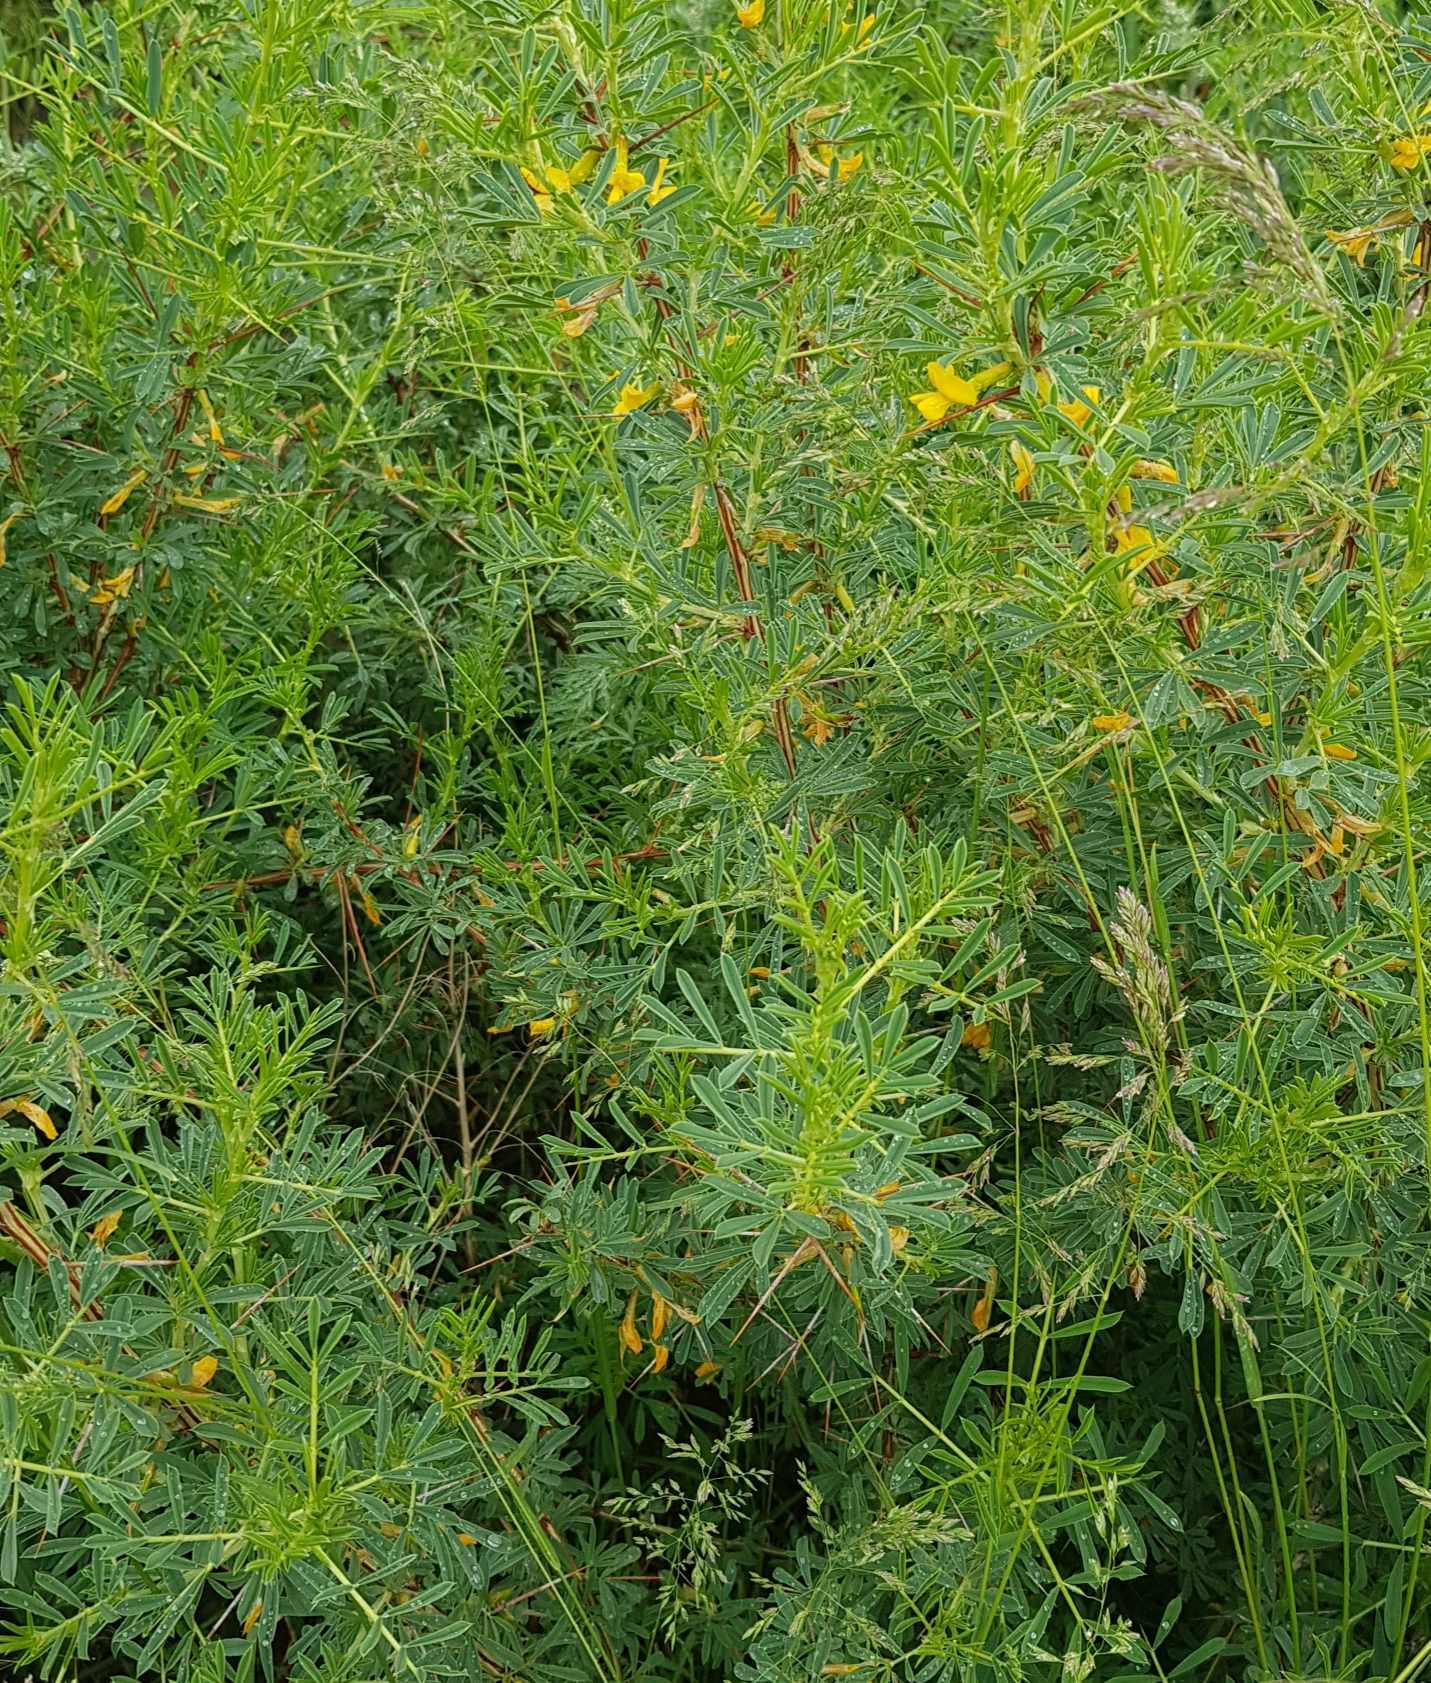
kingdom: Plantae
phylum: Tracheophyta
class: Magnoliopsida
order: Fabales
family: Fabaceae
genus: Caragana
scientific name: Caragana spinosa
